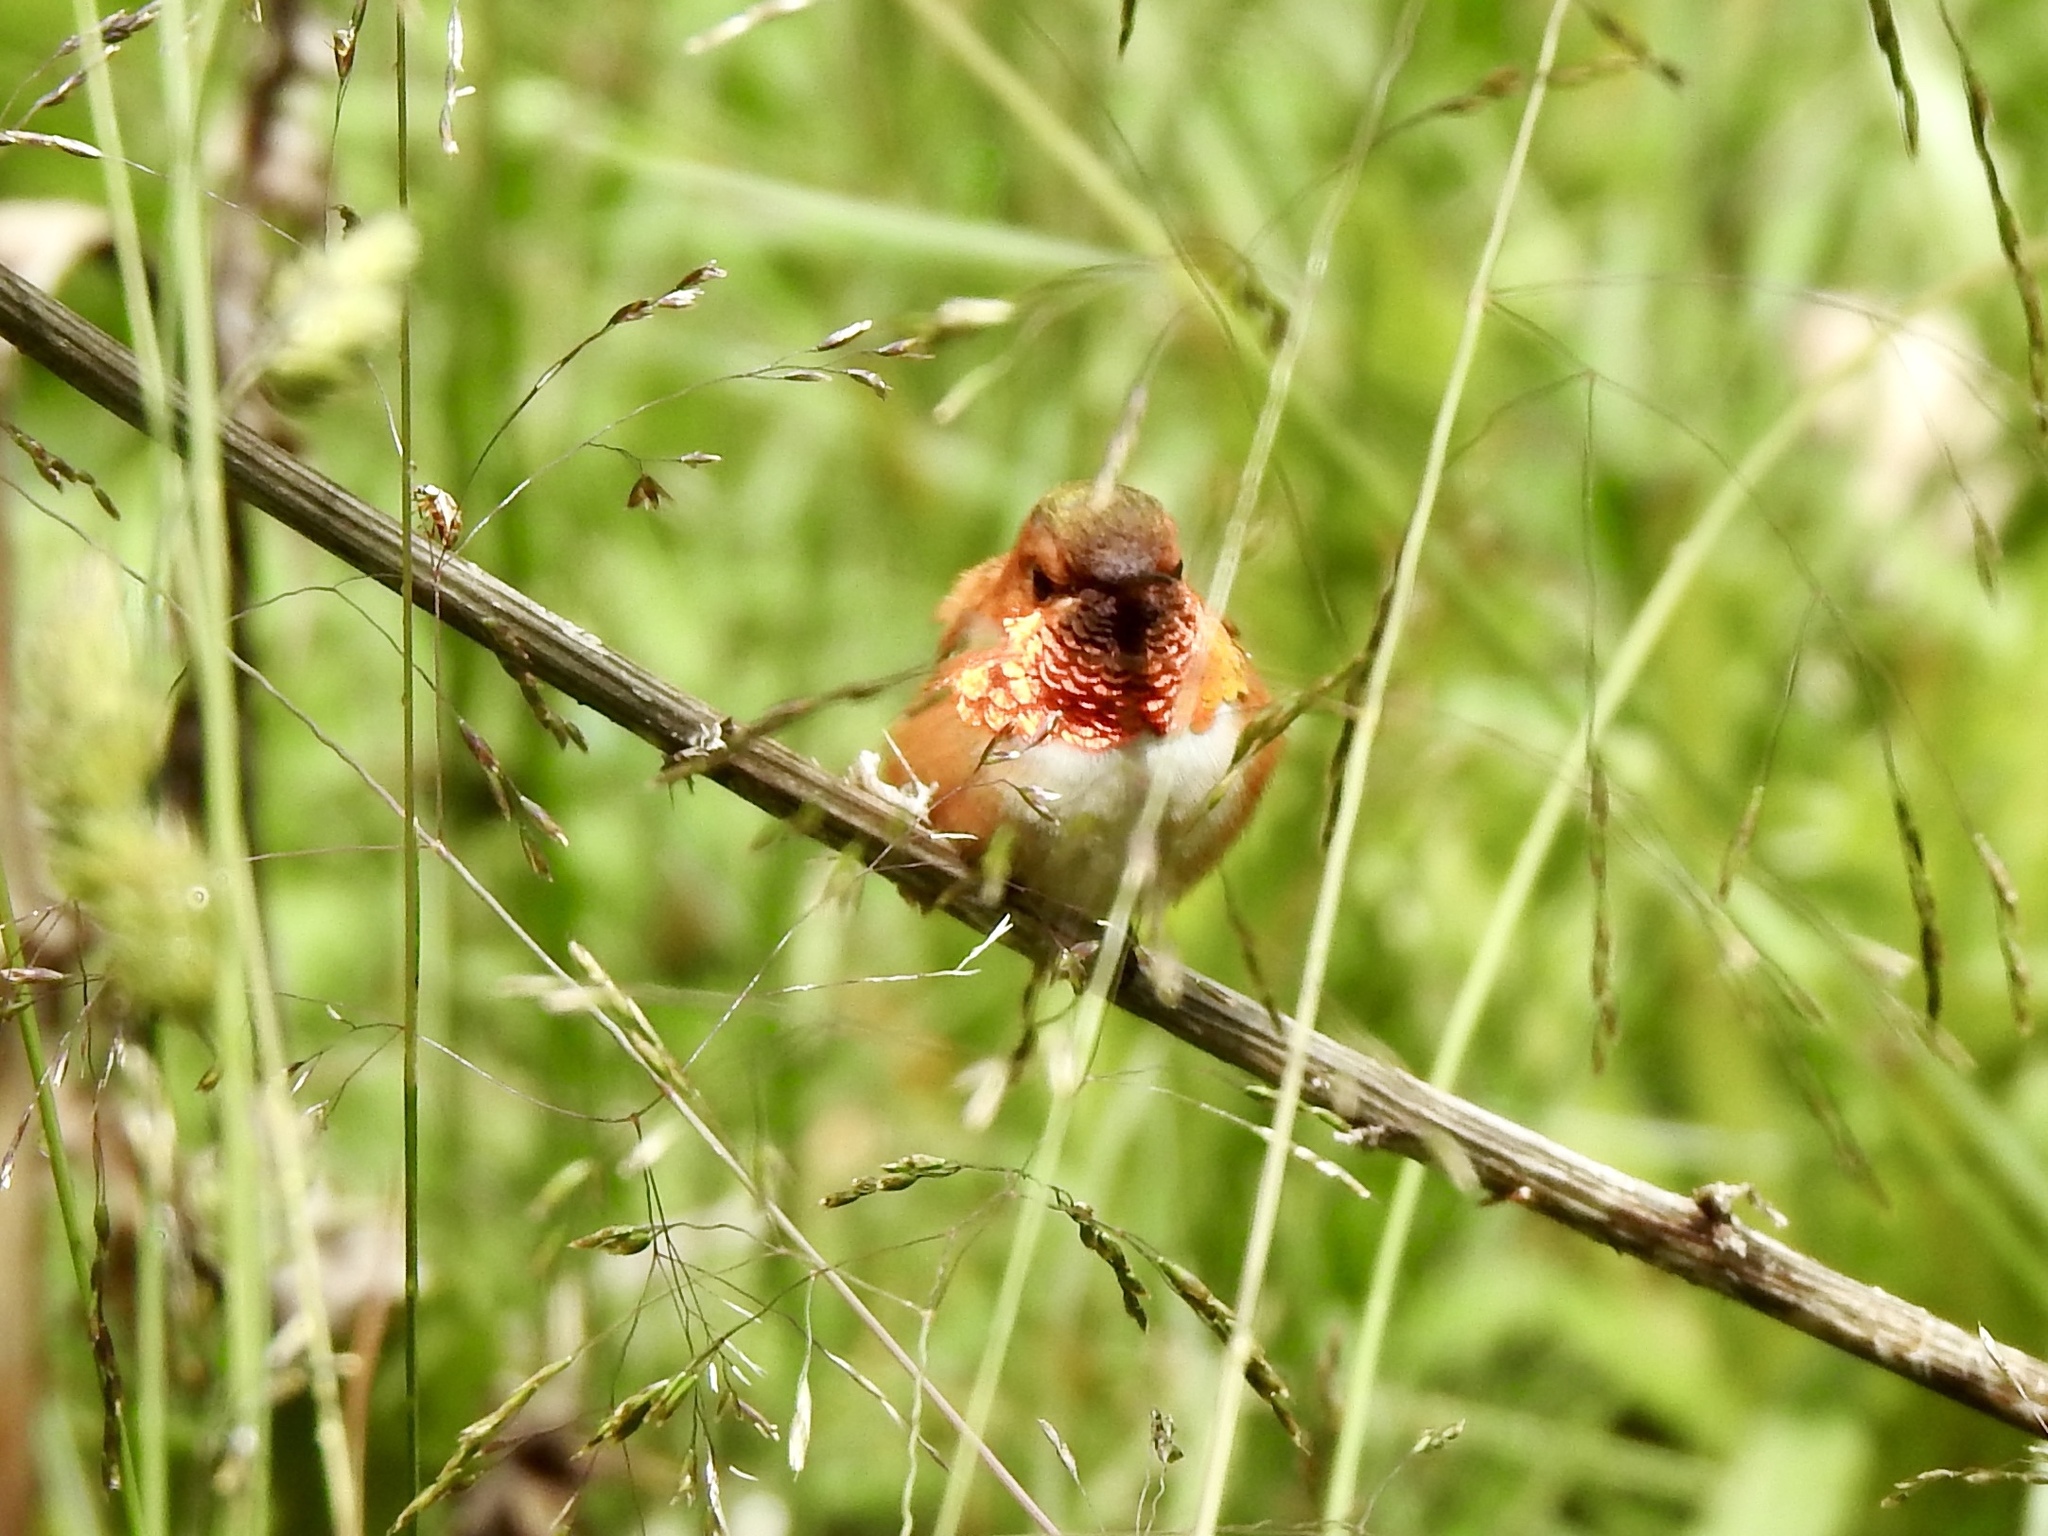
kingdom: Animalia
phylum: Chordata
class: Aves
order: Apodiformes
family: Trochilidae
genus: Selasphorus
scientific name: Selasphorus rufus
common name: Rufous hummingbird
